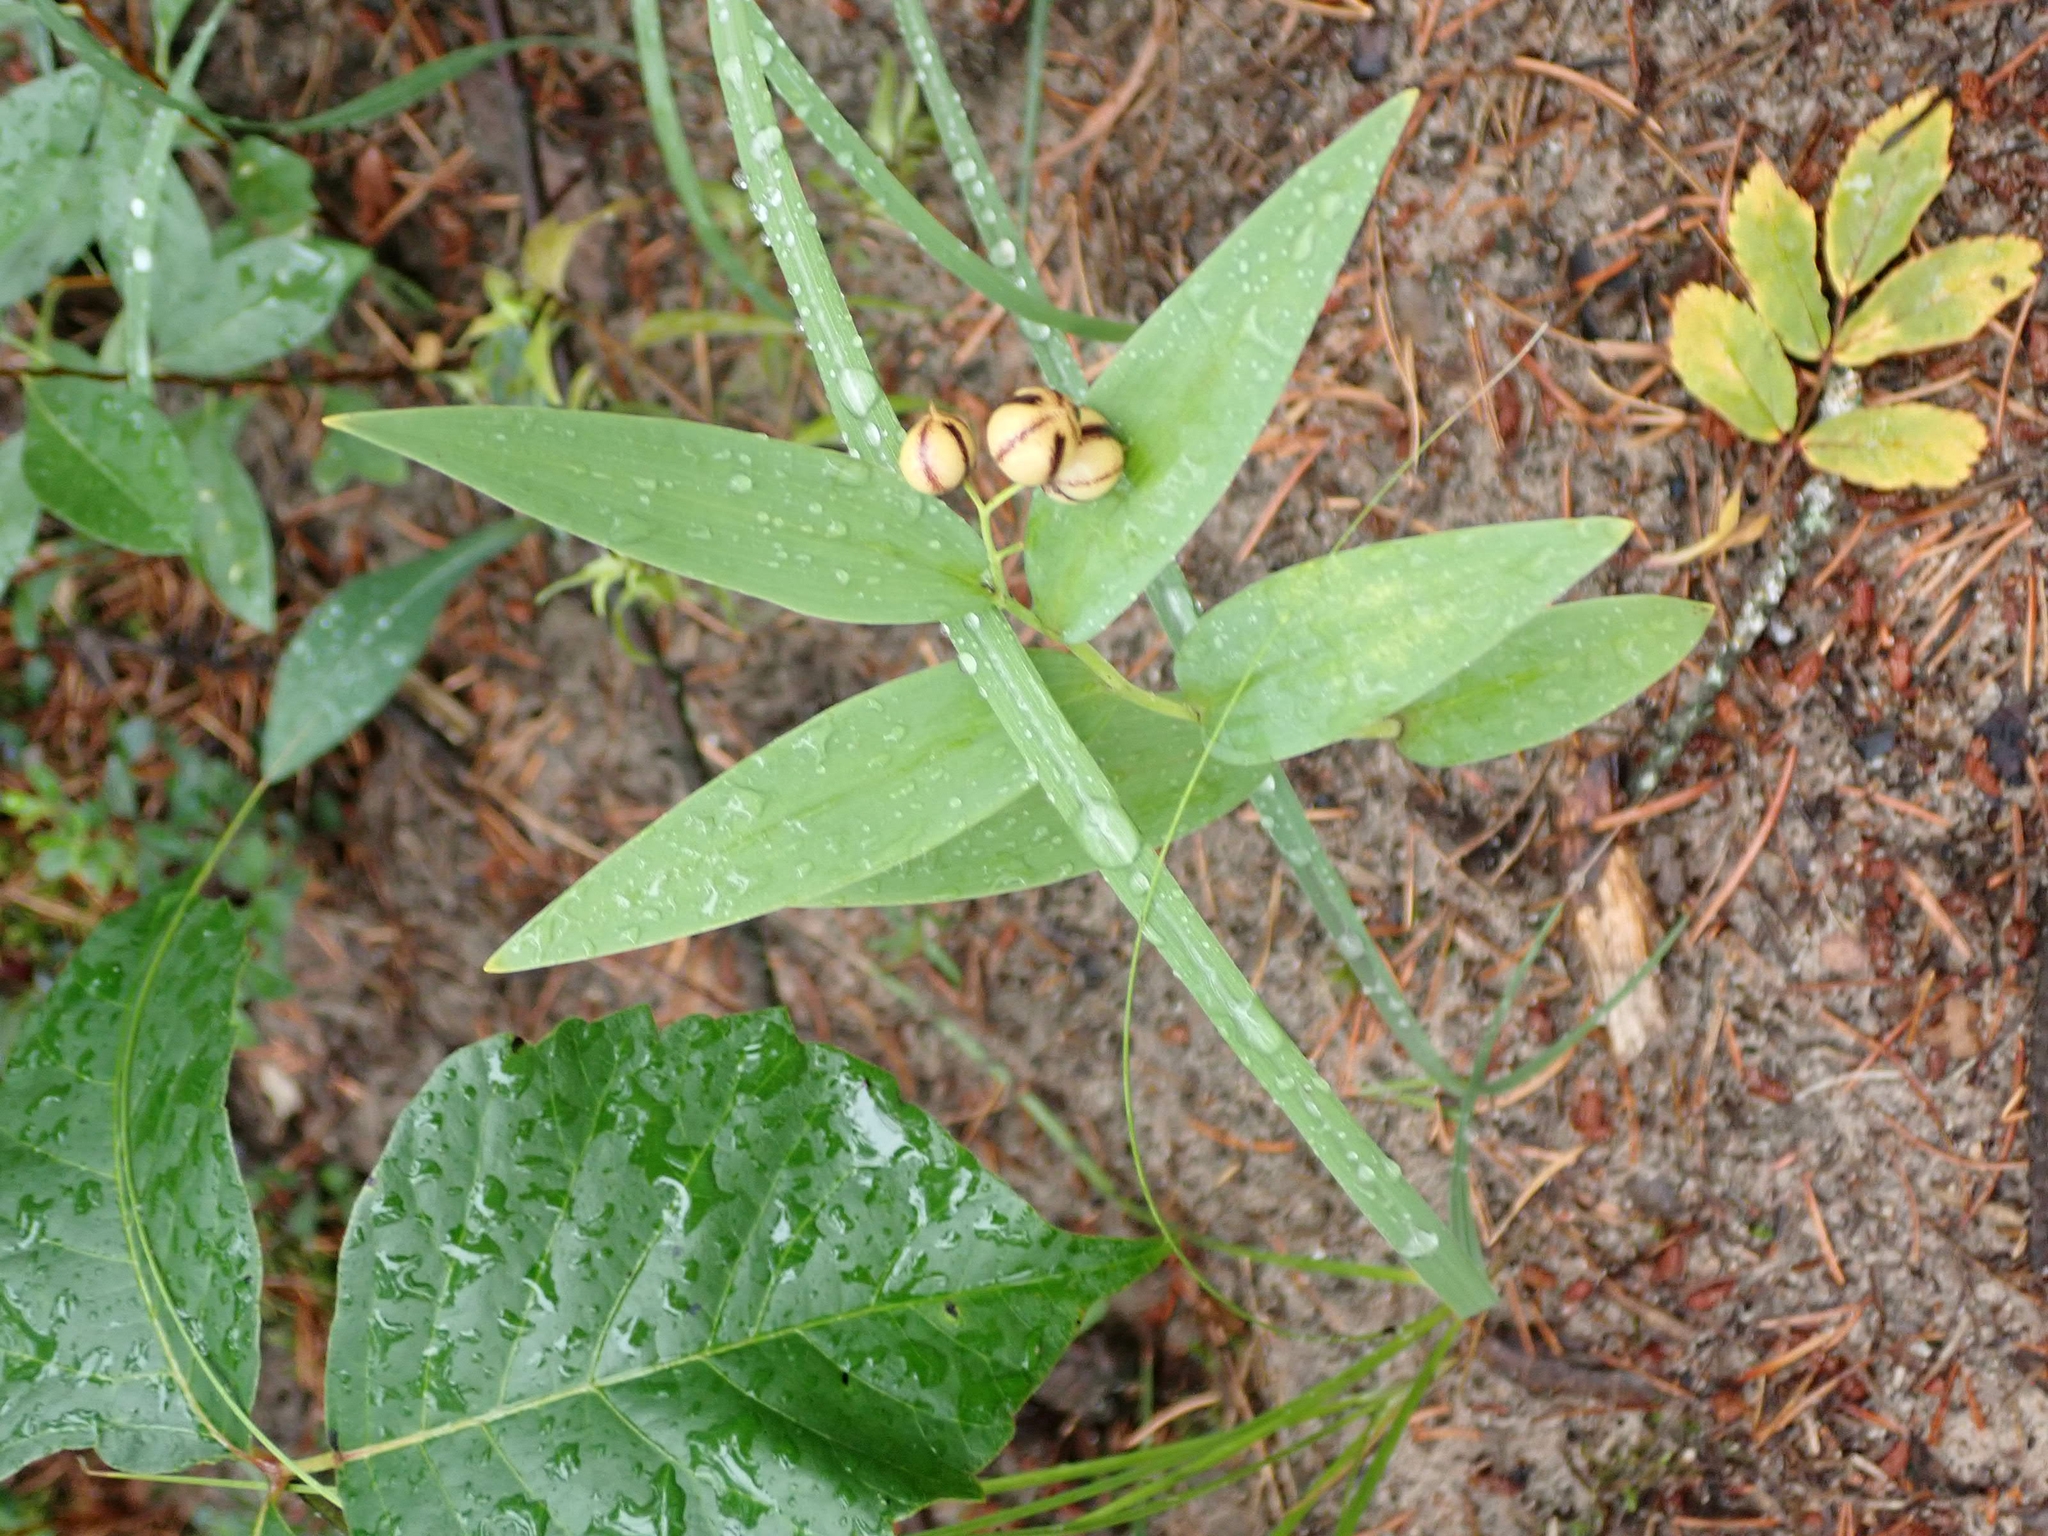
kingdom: Plantae
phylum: Tracheophyta
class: Liliopsida
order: Asparagales
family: Asparagaceae
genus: Maianthemum
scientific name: Maianthemum stellatum
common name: Little false solomon's seal
